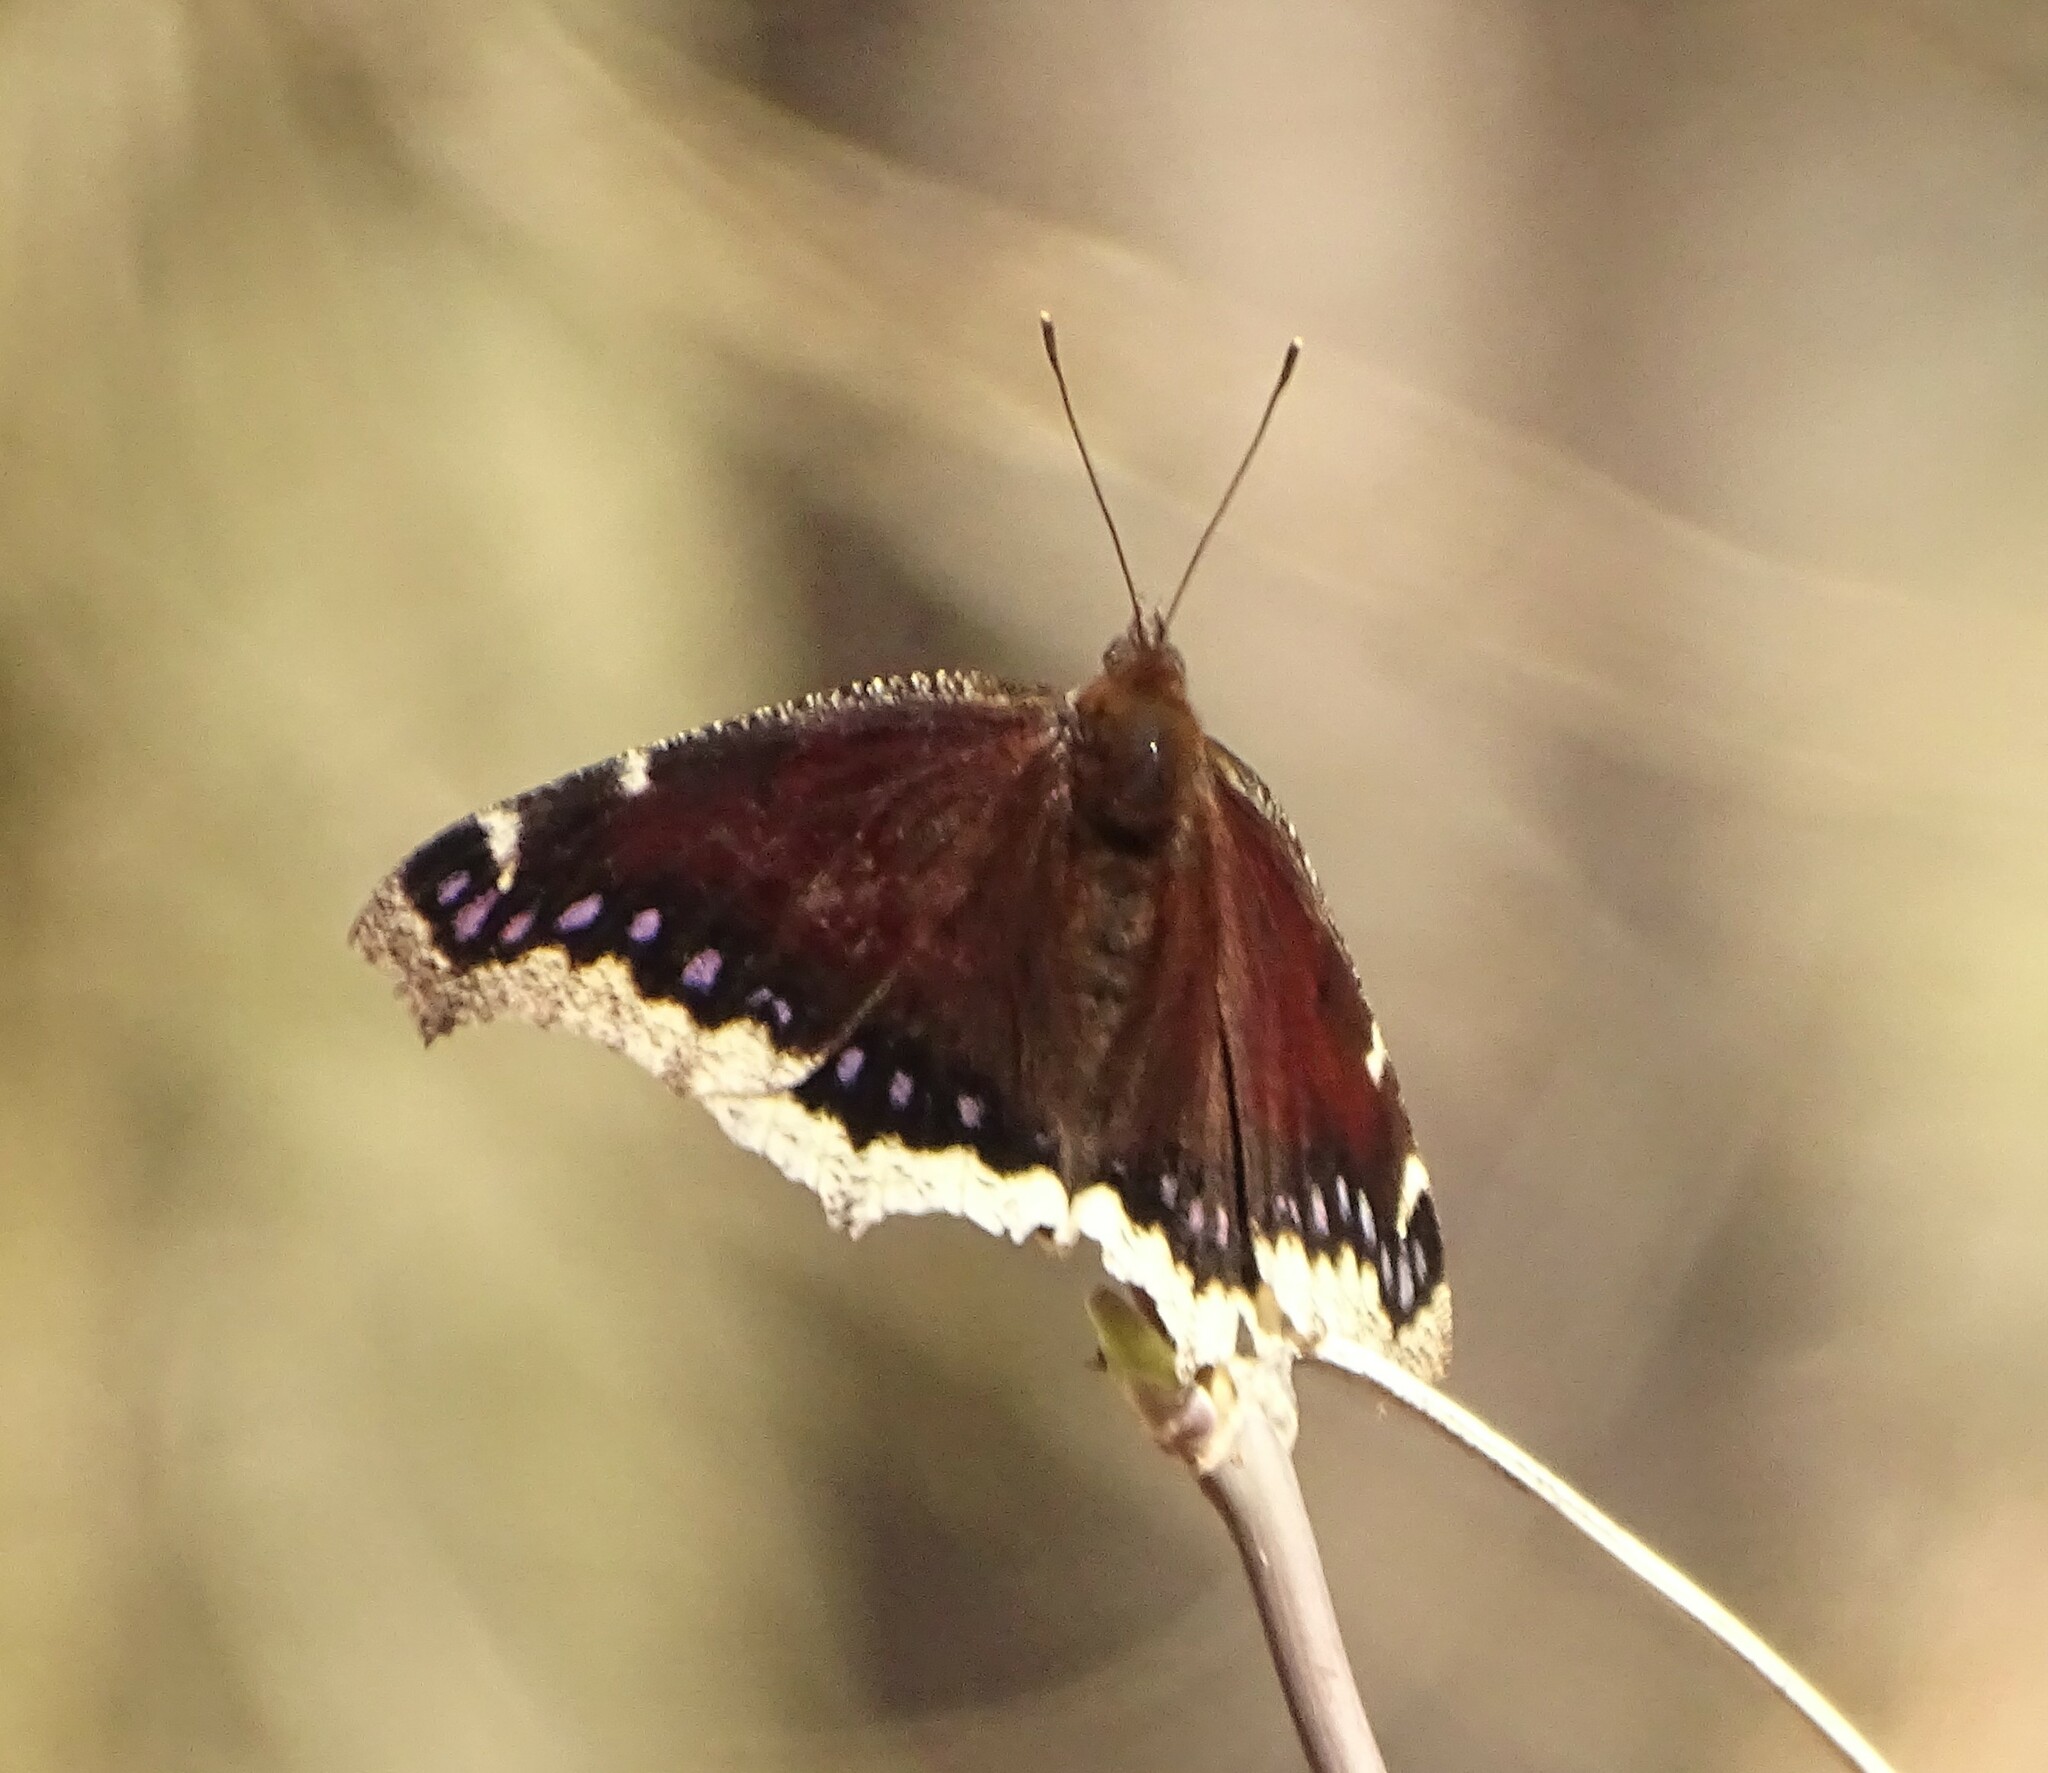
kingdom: Animalia
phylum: Arthropoda
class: Insecta
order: Lepidoptera
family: Nymphalidae
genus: Nymphalis
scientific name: Nymphalis antiopa
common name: Camberwell beauty
